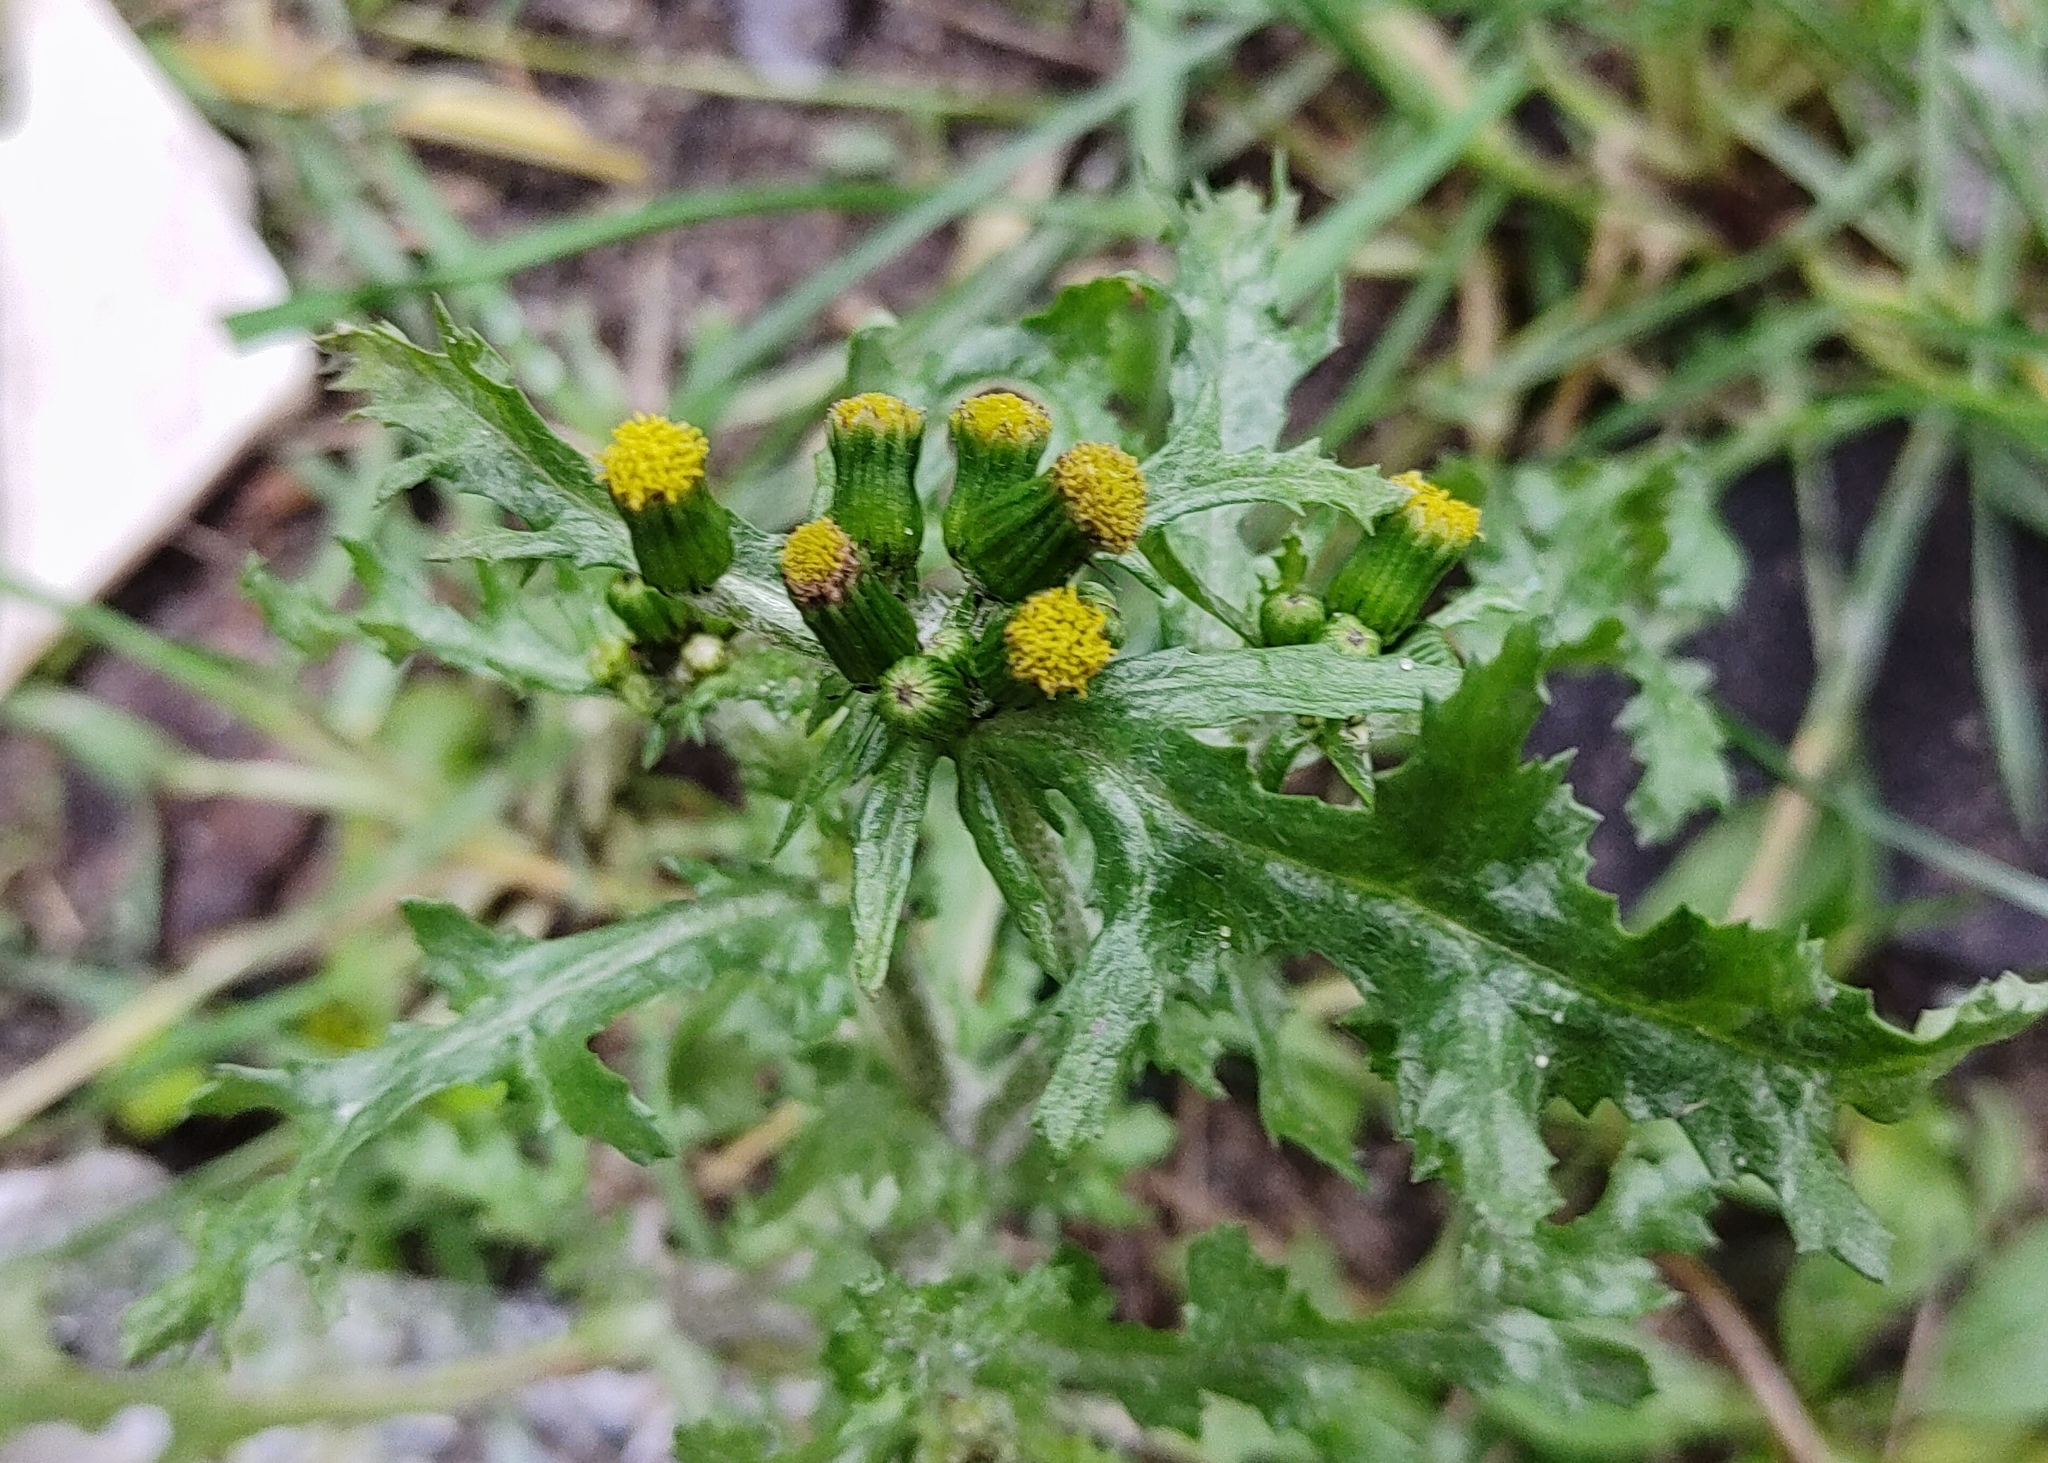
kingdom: Plantae
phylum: Tracheophyta
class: Magnoliopsida
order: Asterales
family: Asteraceae
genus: Senecio
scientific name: Senecio vulgaris
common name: Old-man-in-the-spring
